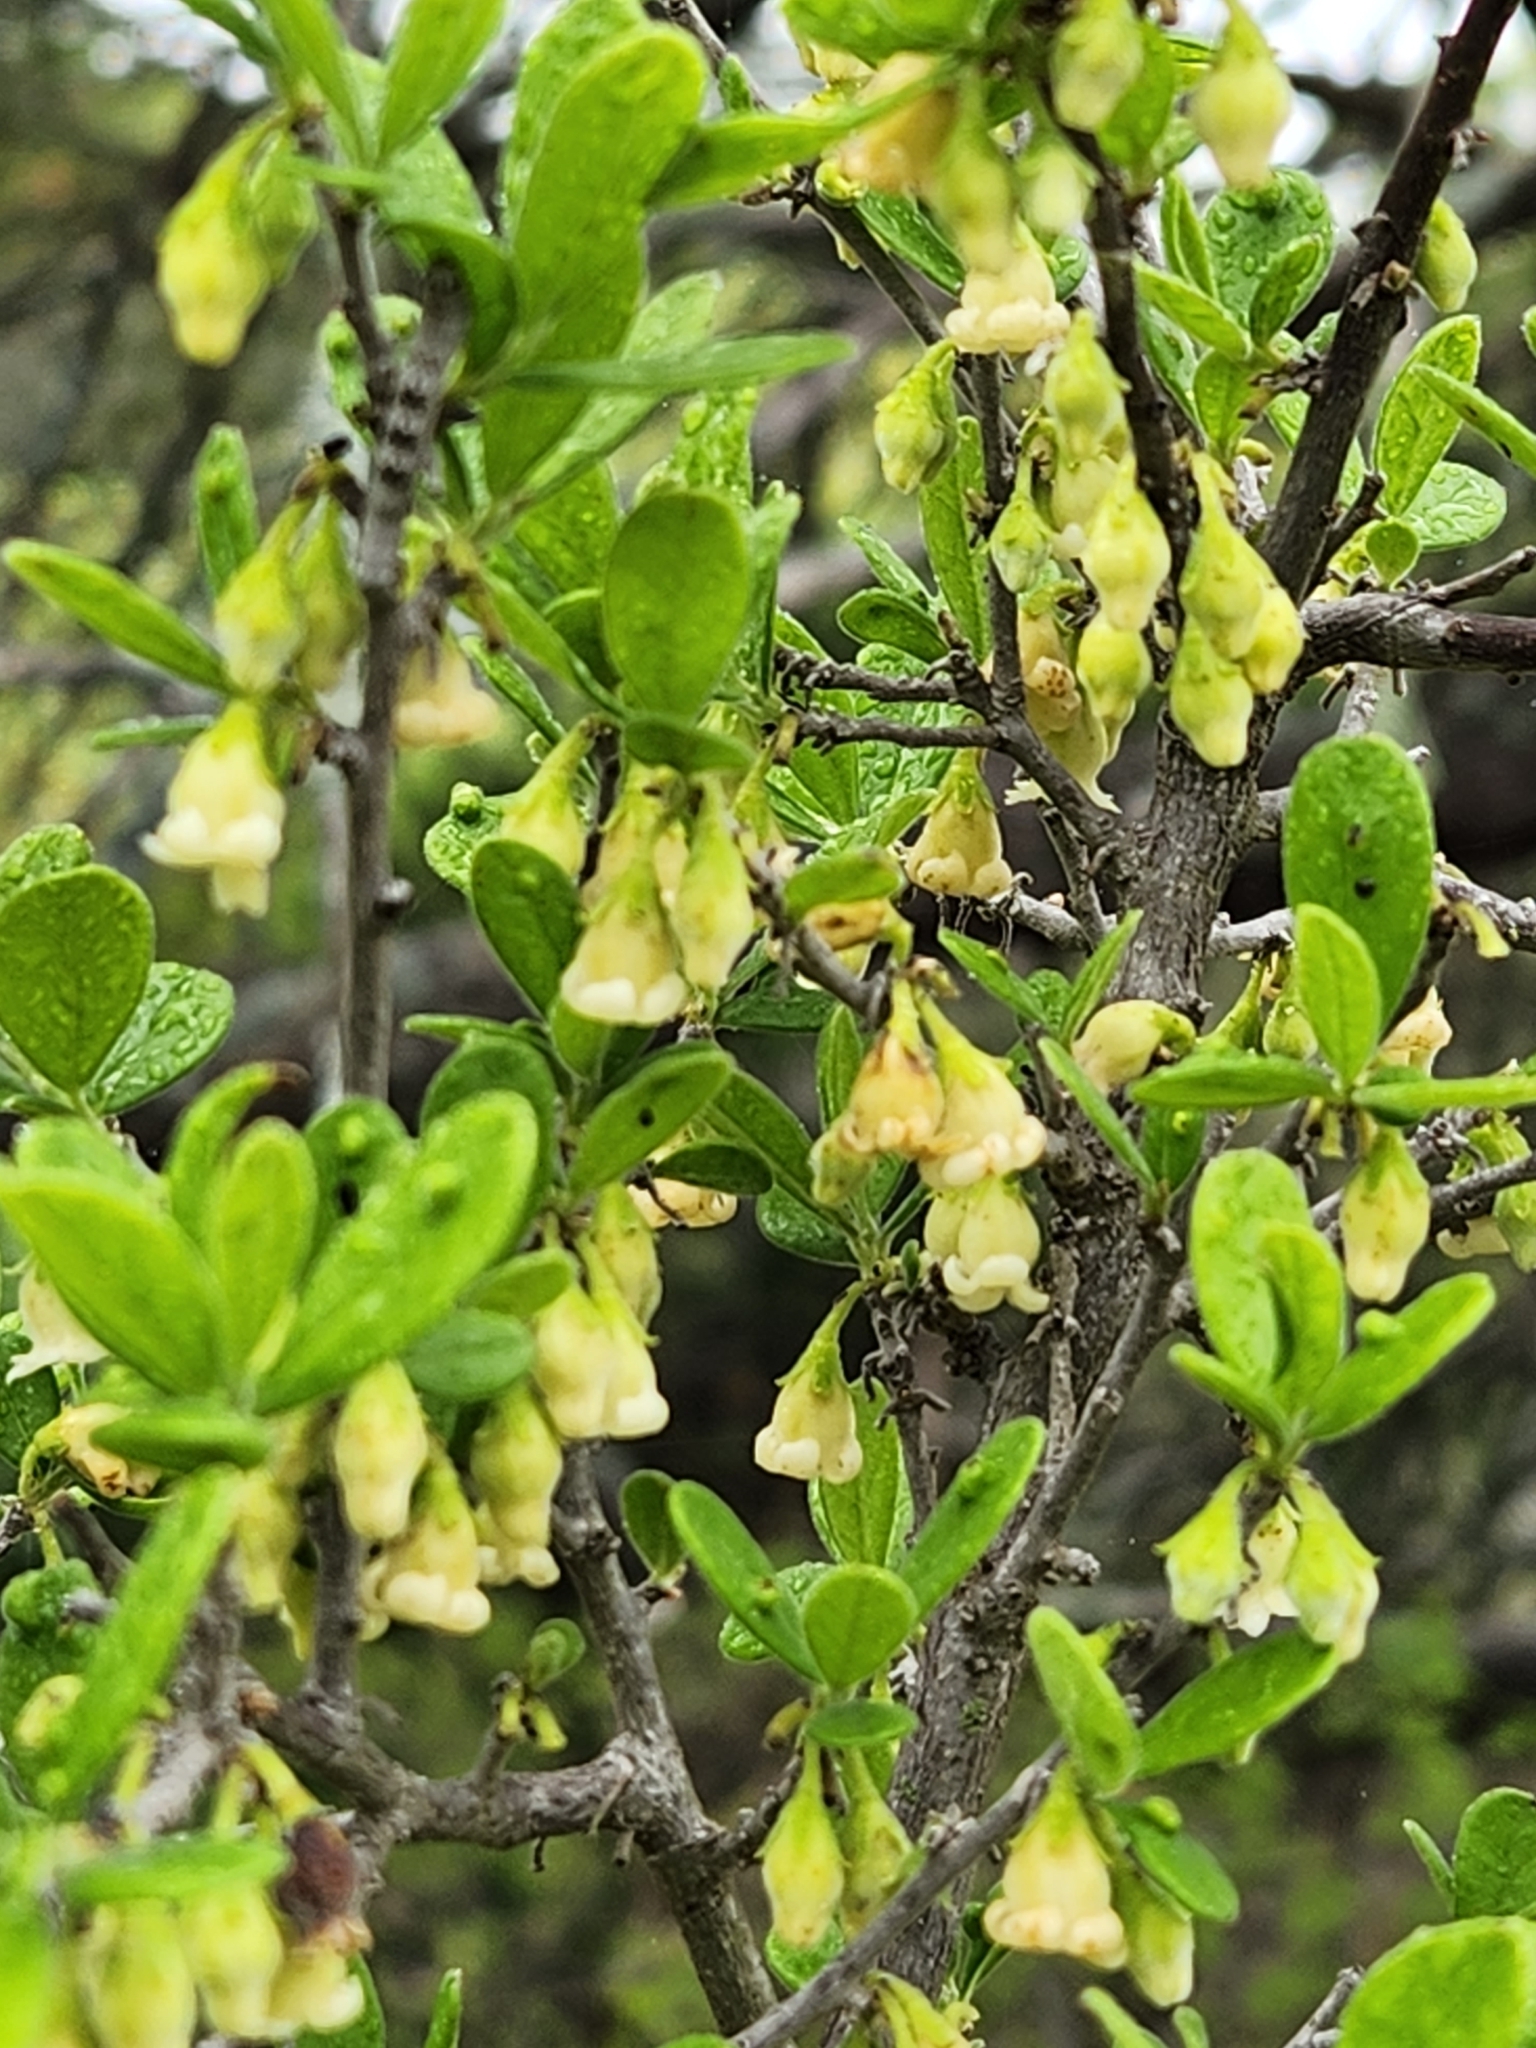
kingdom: Plantae
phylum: Tracheophyta
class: Magnoliopsida
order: Ericales
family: Ebenaceae
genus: Diospyros
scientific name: Diospyros texana
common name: Texas persimmon
